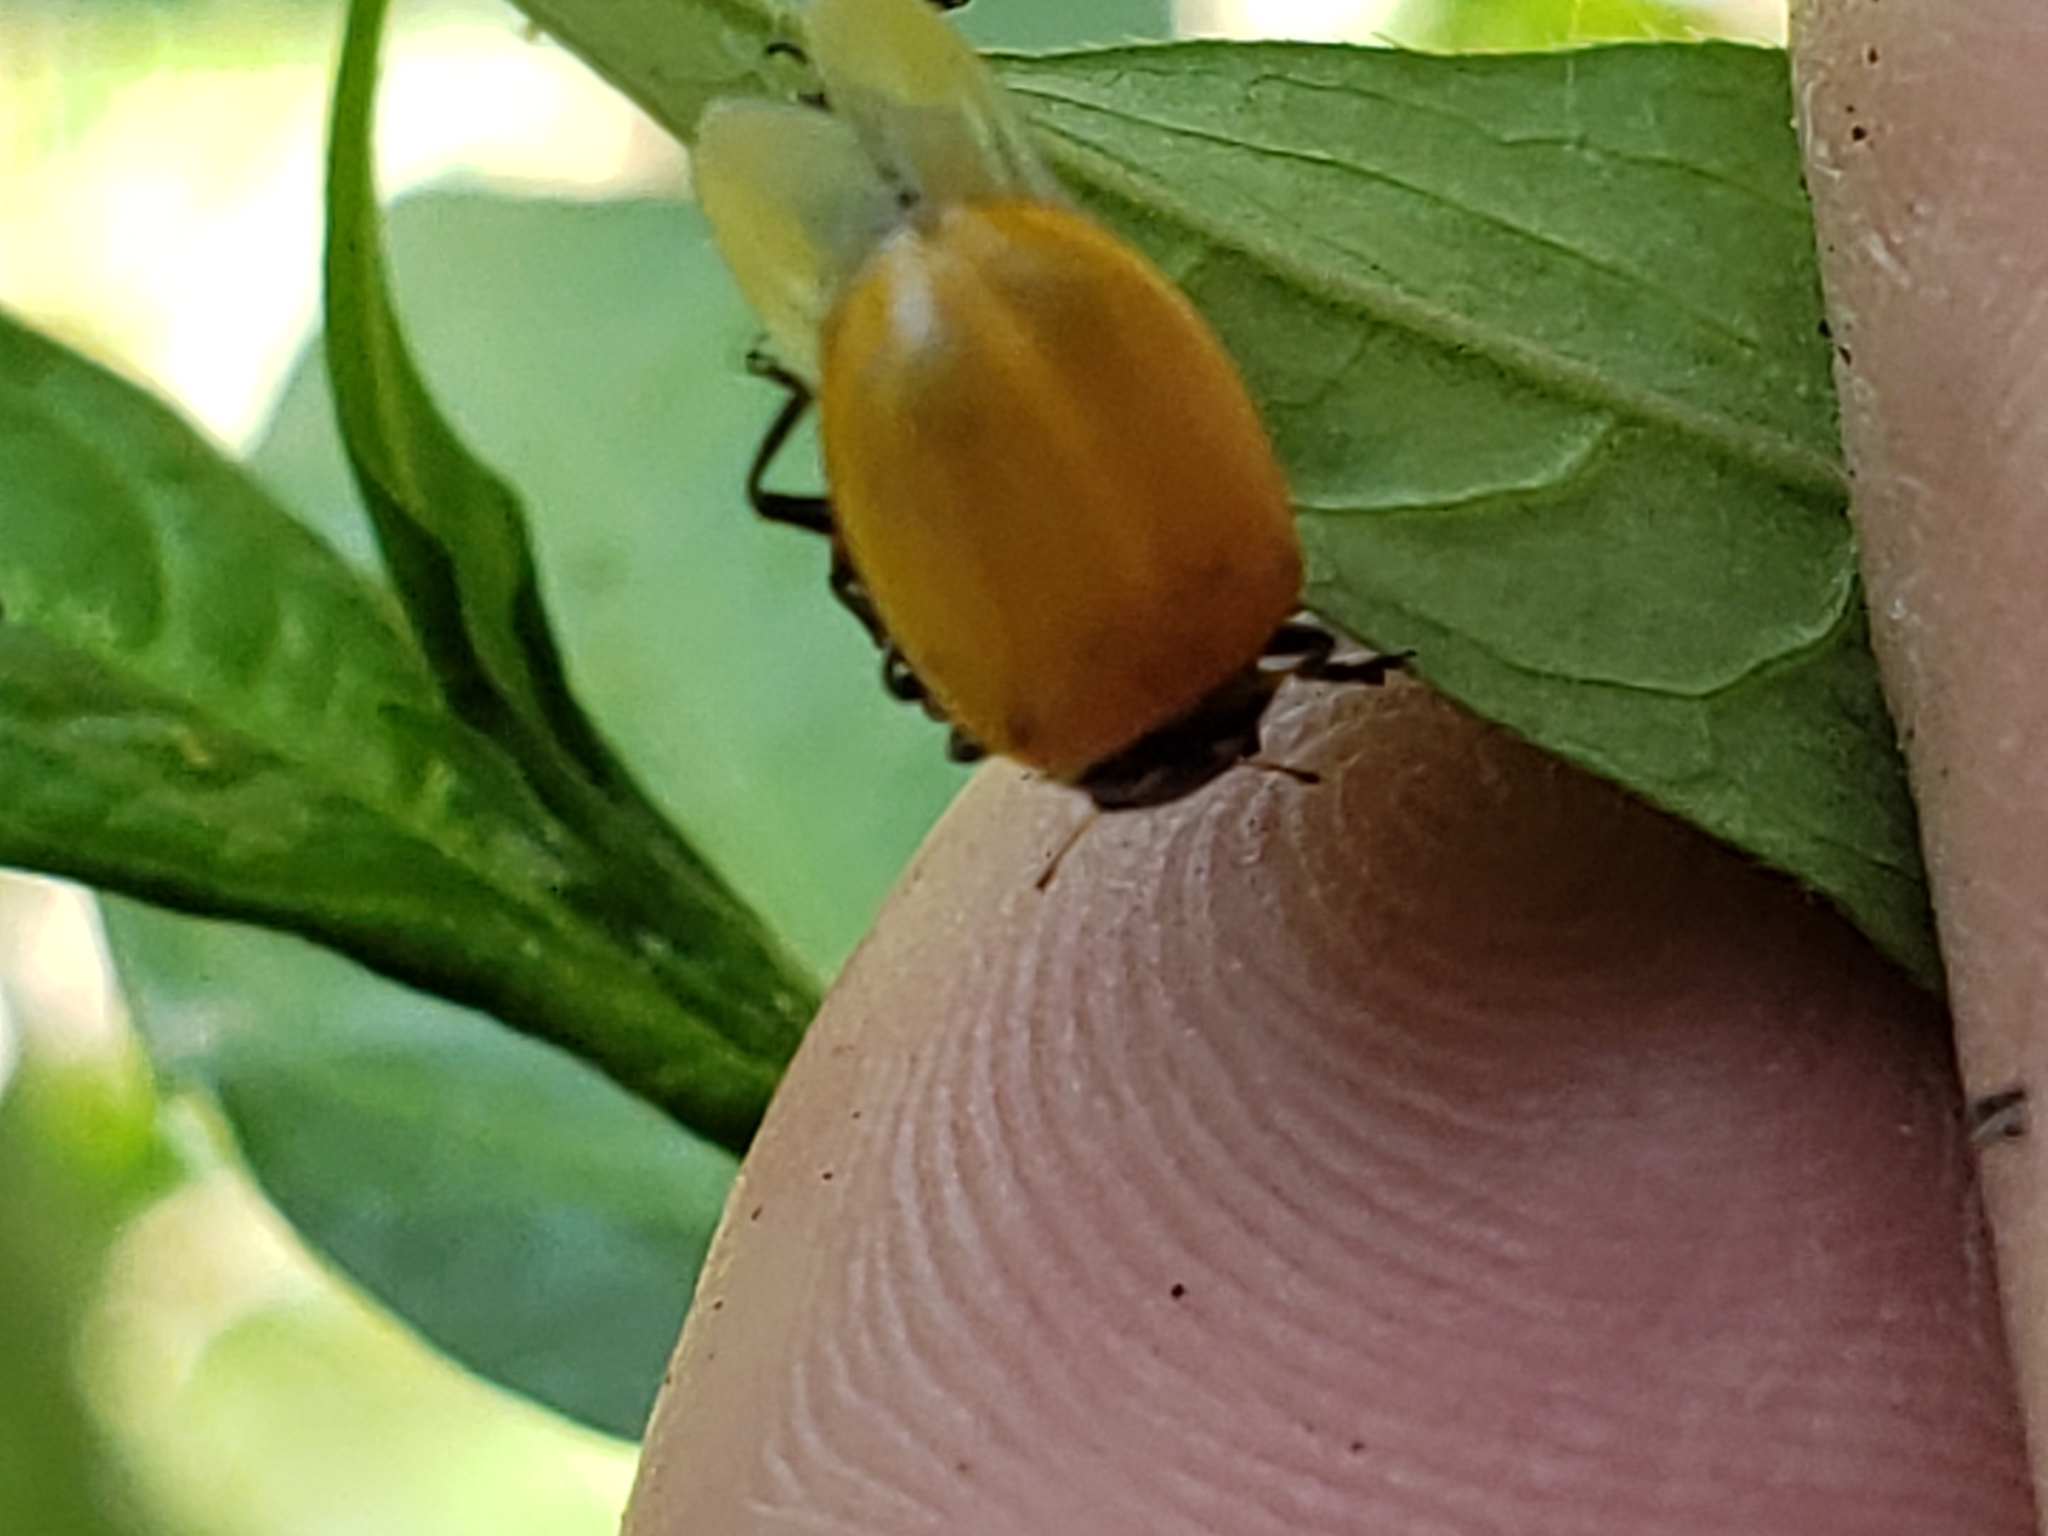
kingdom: Animalia
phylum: Arthropoda
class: Insecta
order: Coleoptera
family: Coccinellidae
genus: Hippodamia
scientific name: Hippodamia convergens
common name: Convergent lady beetle
